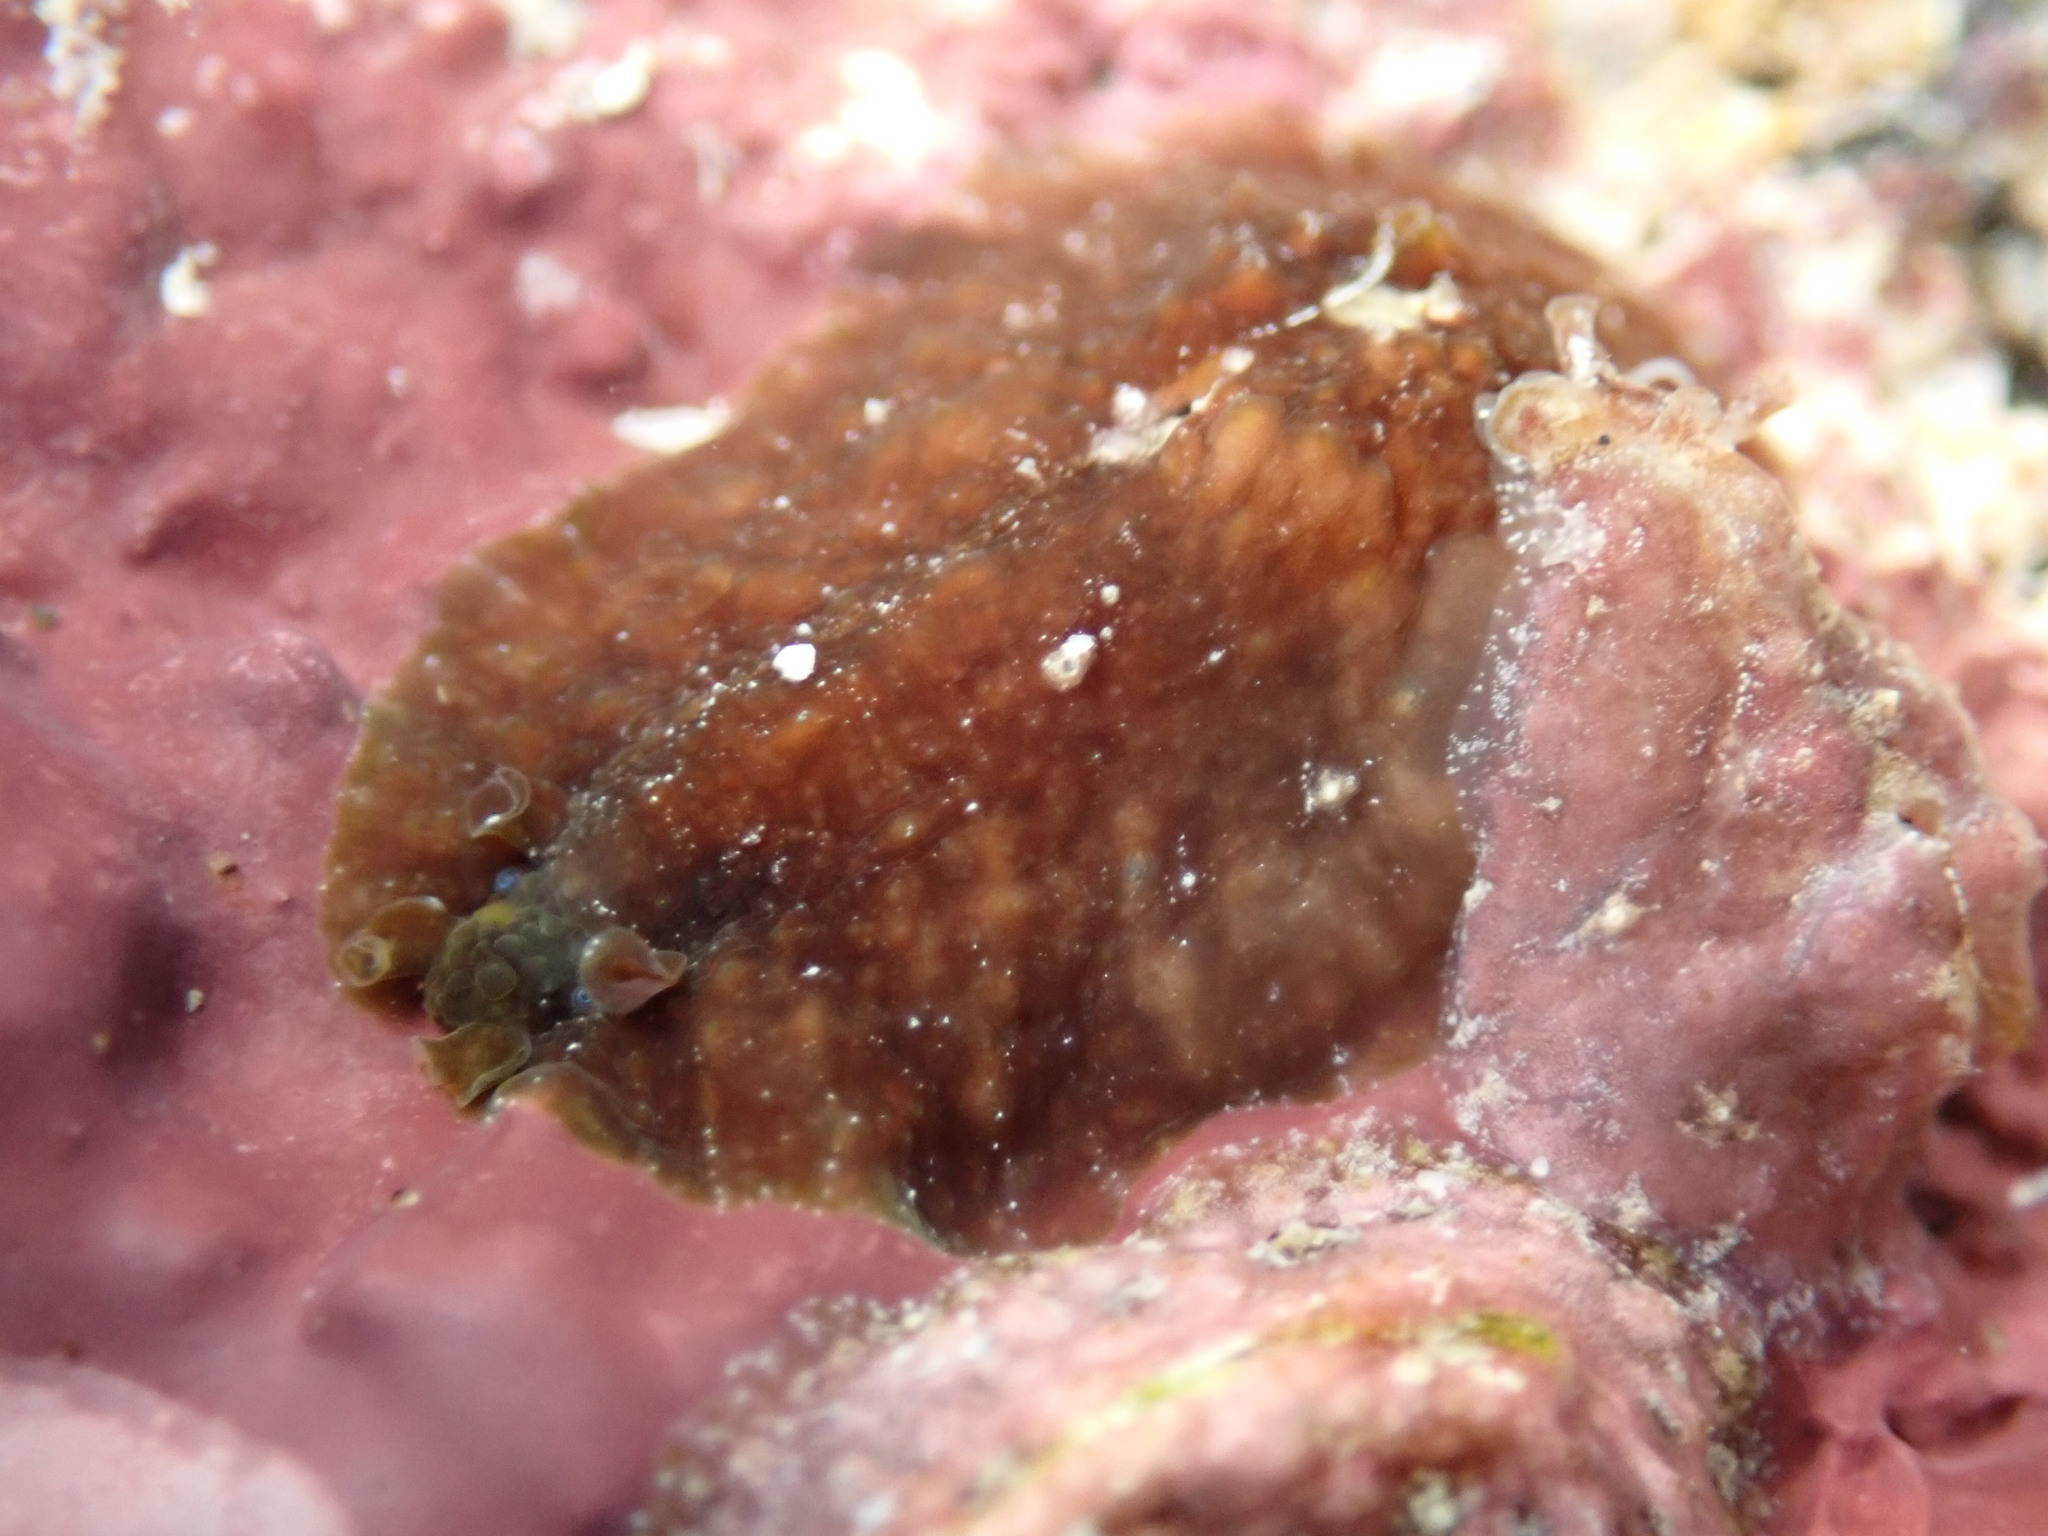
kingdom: Animalia
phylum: Mollusca
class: Gastropoda
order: Aplysiida
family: Aplysiidae
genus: Dolabrifera
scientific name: Dolabrifera dolabrifera
